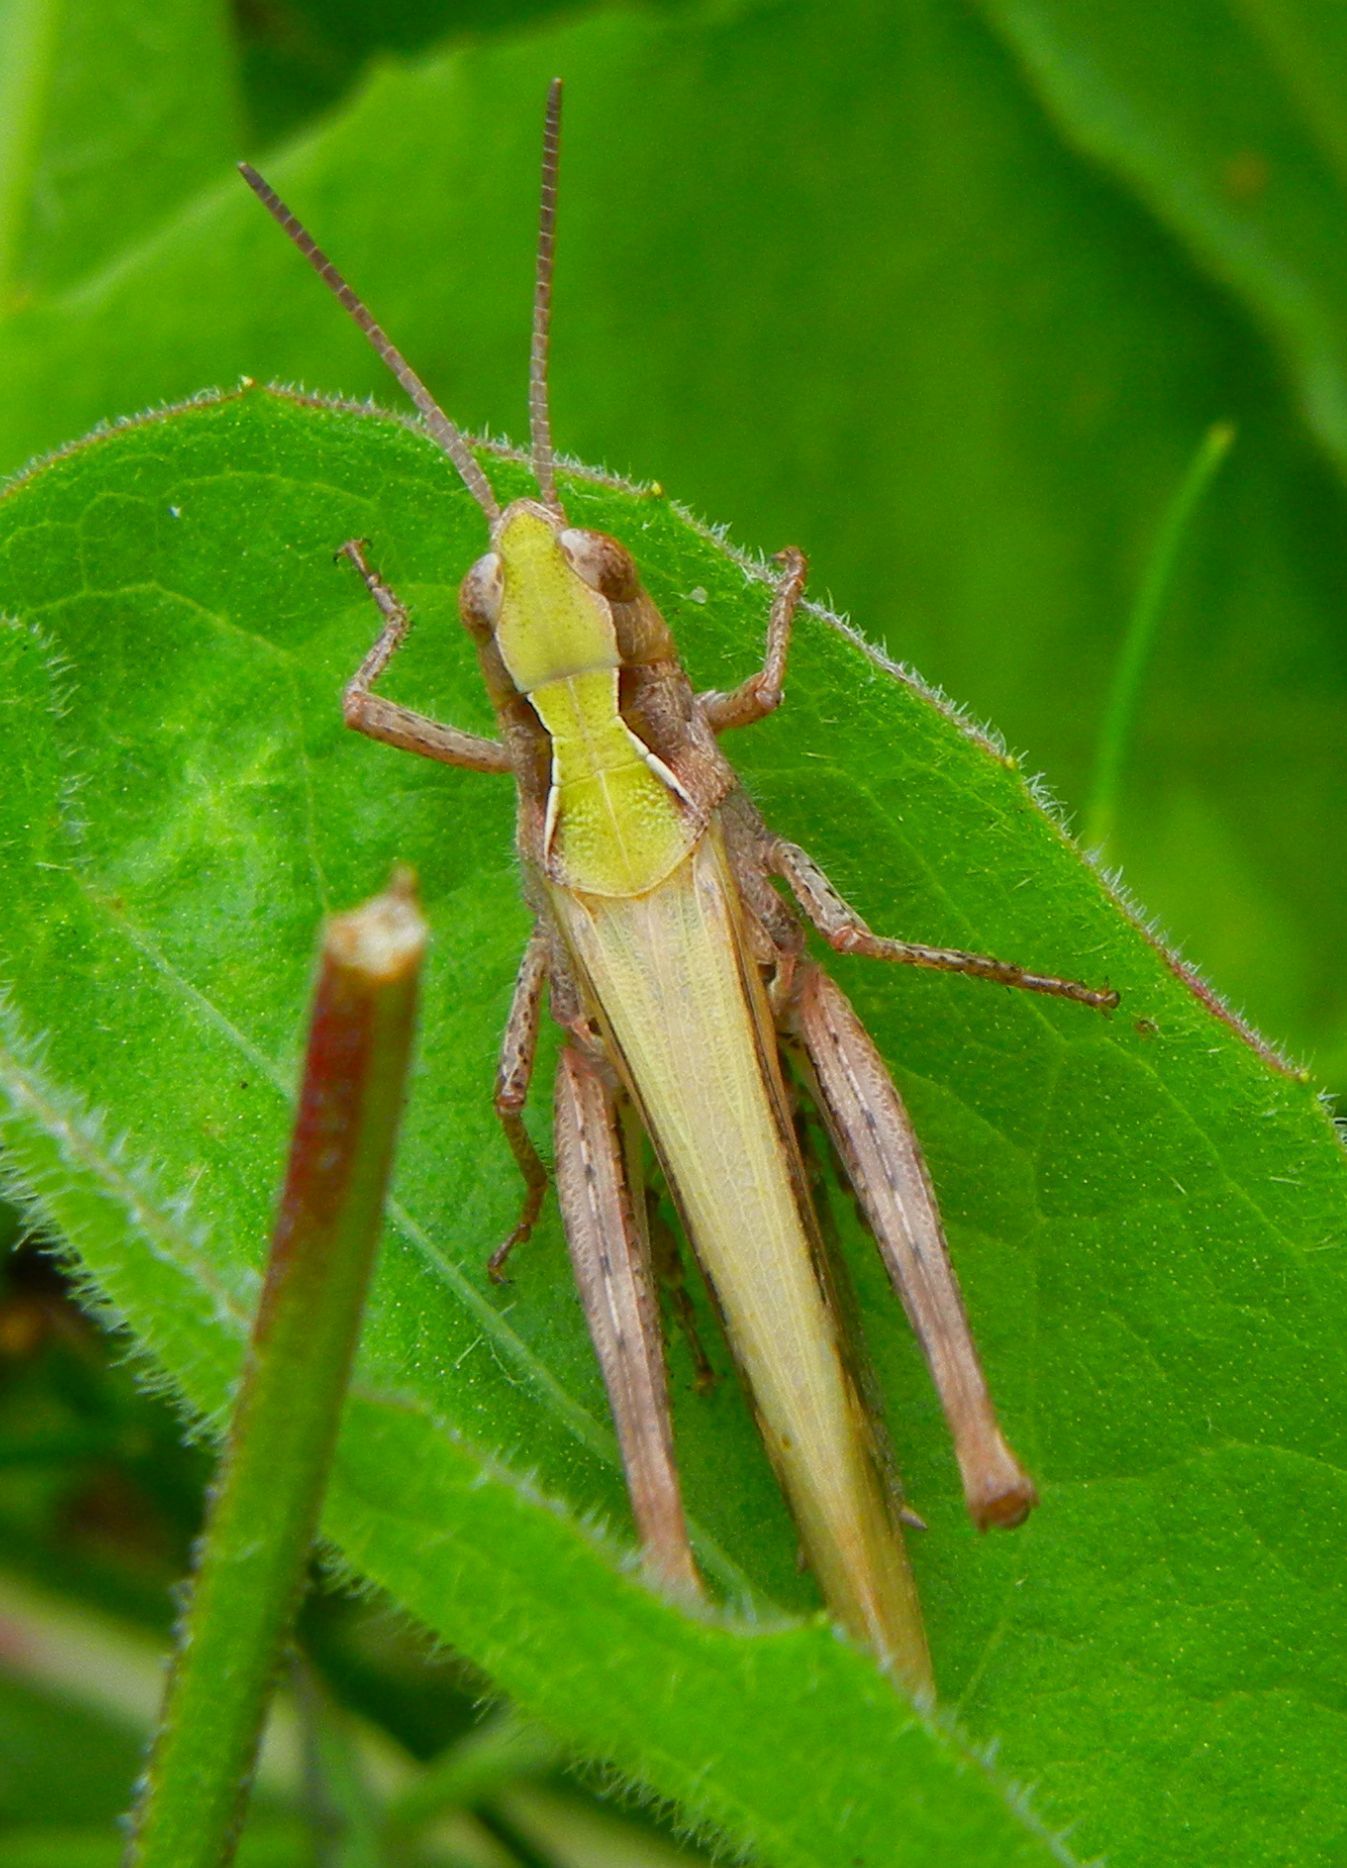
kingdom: Animalia
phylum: Arthropoda
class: Insecta
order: Orthoptera
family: Acrididae
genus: Chorthippus
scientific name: Chorthippus brunneus
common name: Field grasshopper
